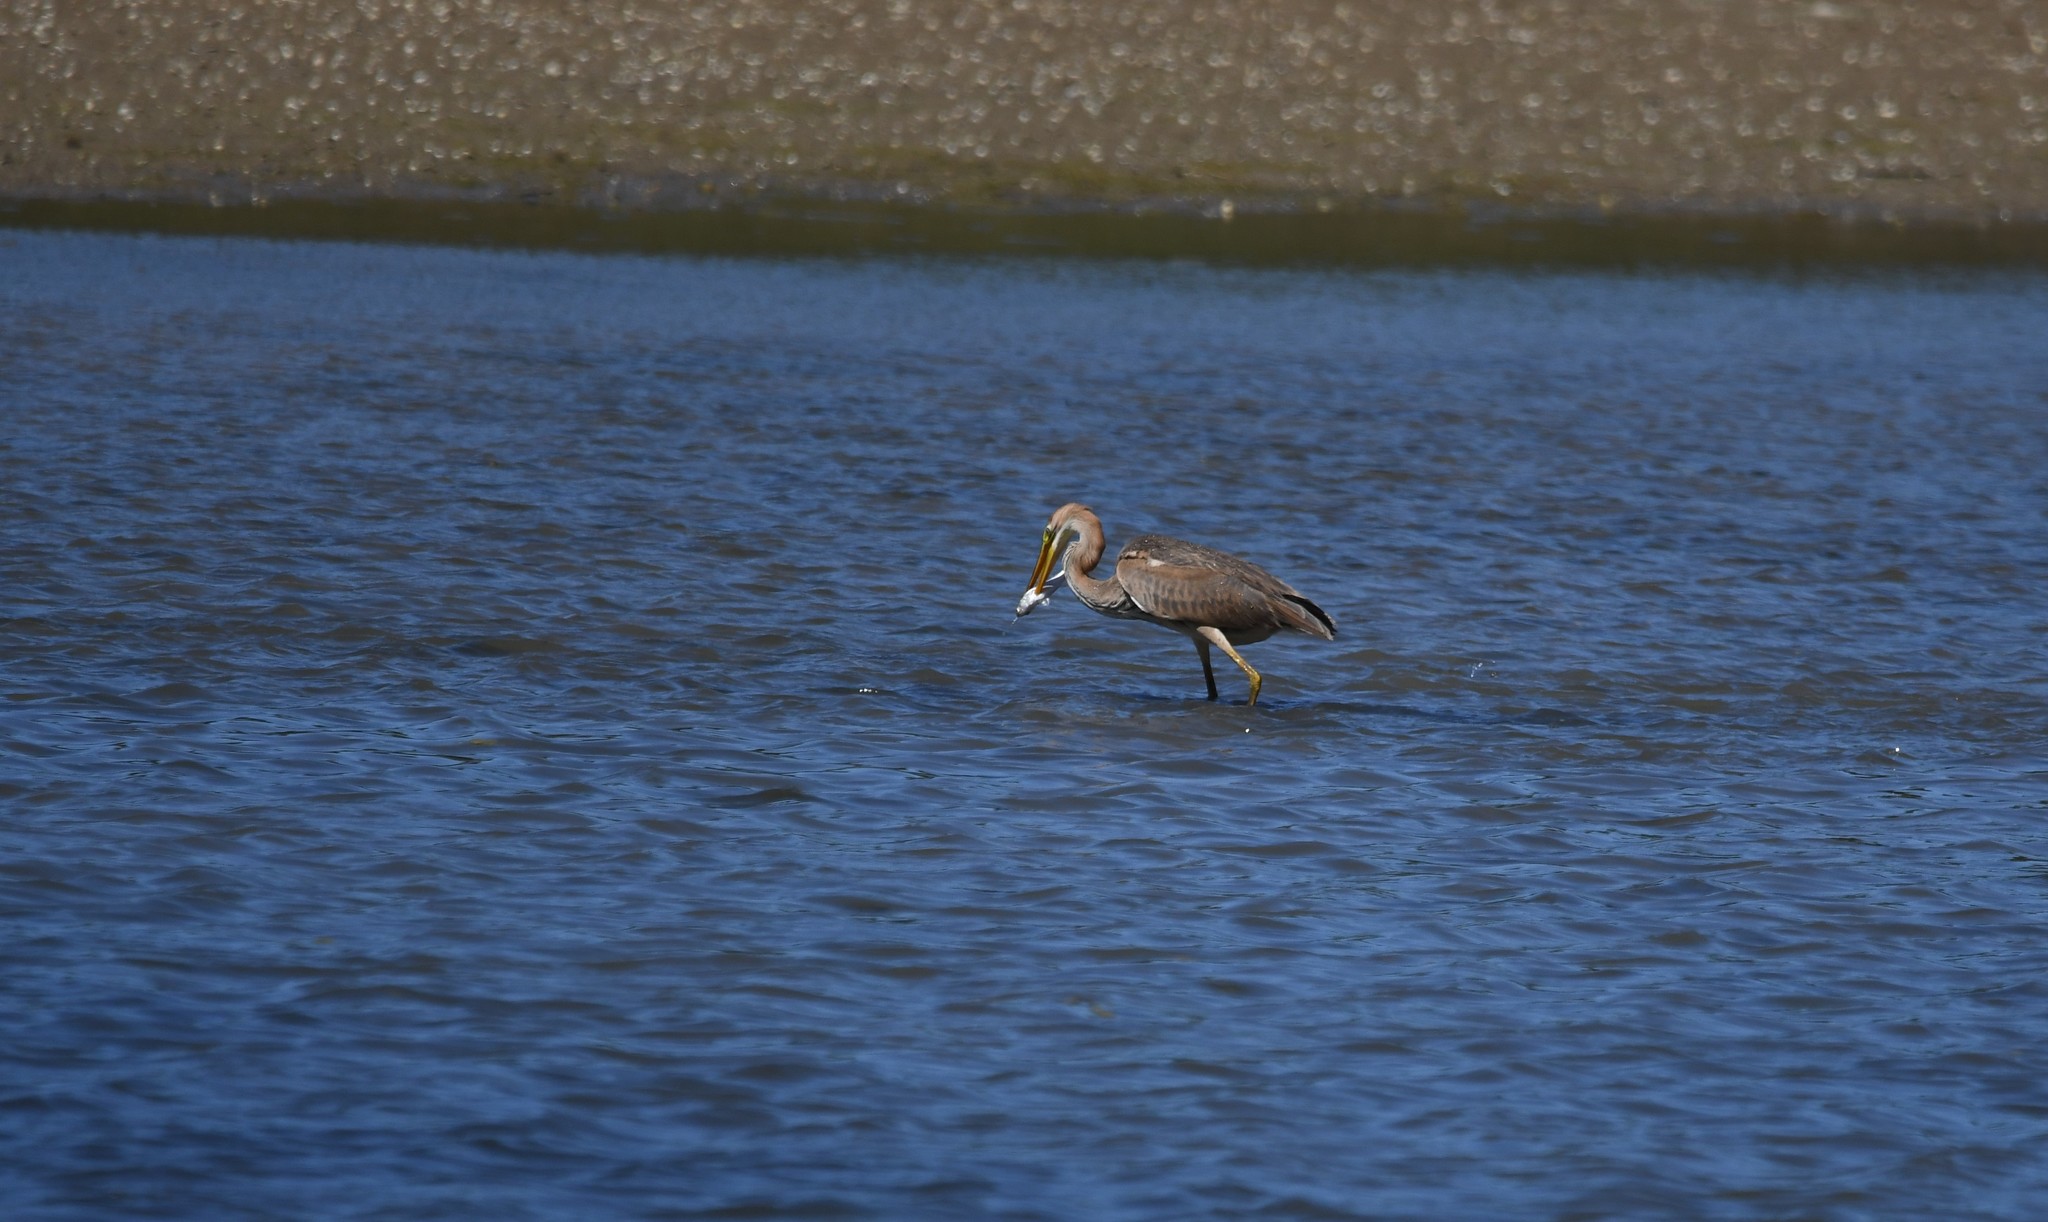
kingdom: Animalia
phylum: Chordata
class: Aves
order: Pelecaniformes
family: Ardeidae
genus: Ardea
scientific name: Ardea purpurea
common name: Purple heron
